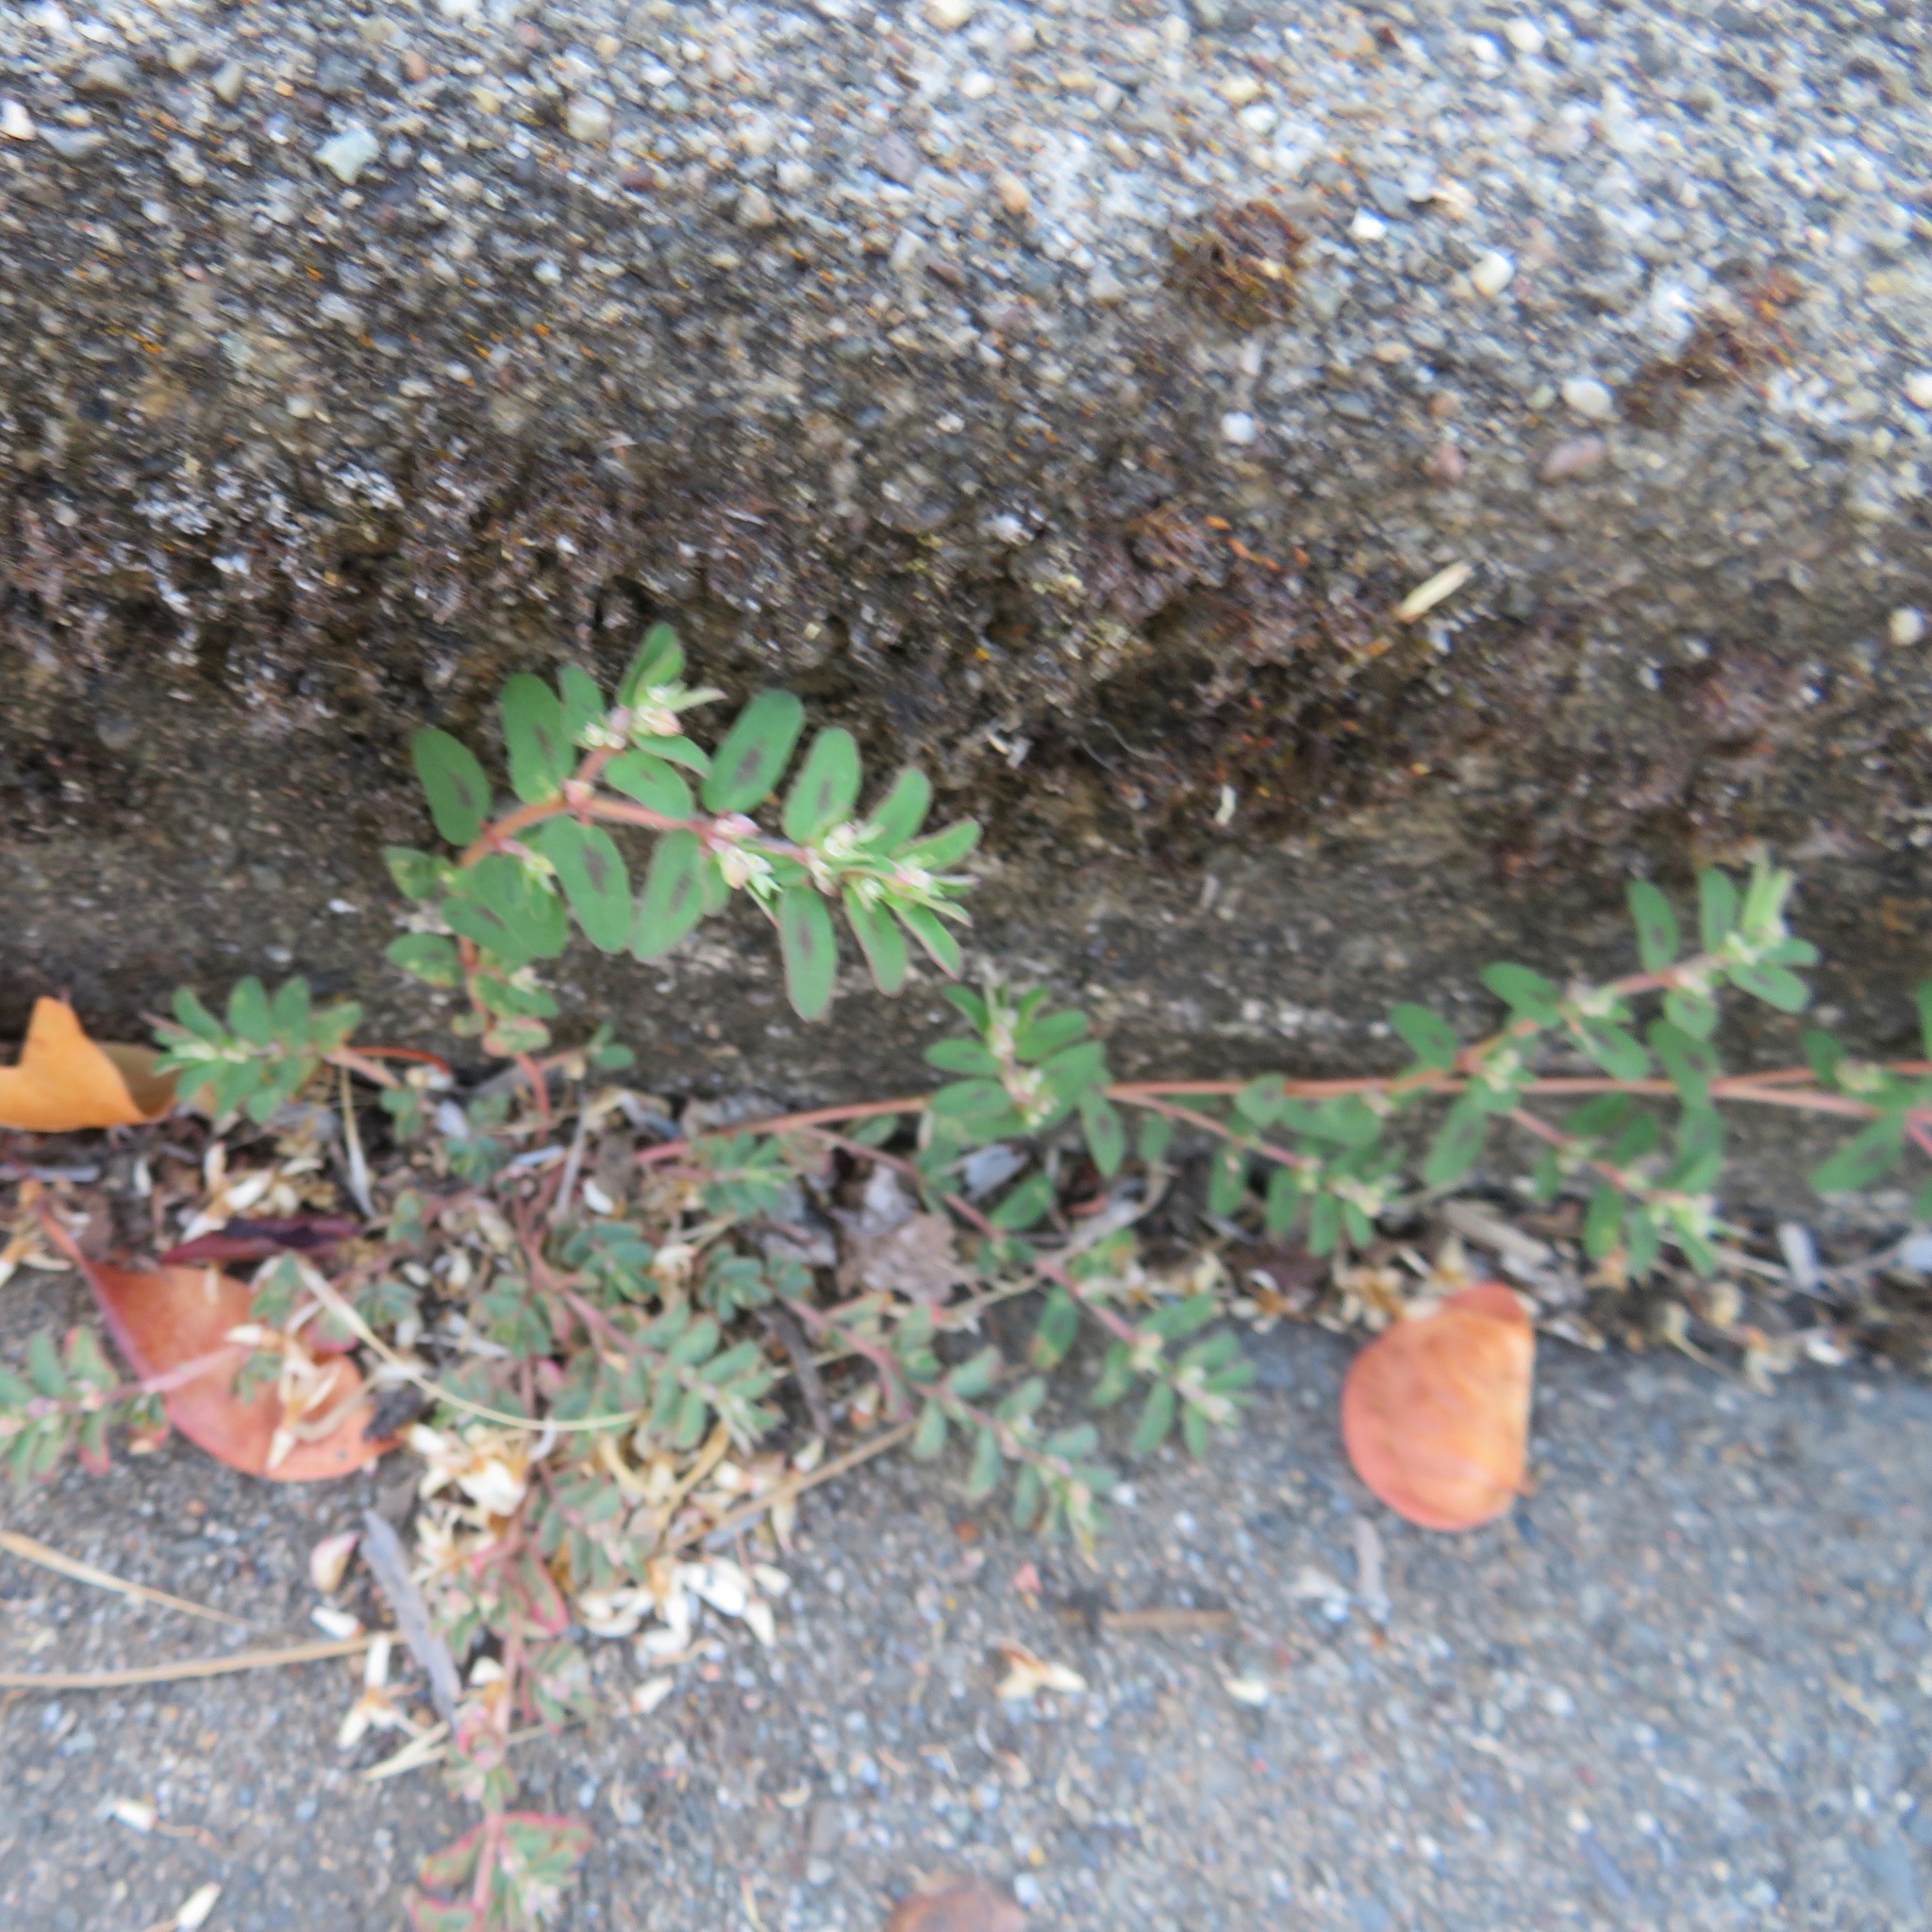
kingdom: Plantae
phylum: Tracheophyta
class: Magnoliopsida
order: Malpighiales
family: Euphorbiaceae
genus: Euphorbia
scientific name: Euphorbia maculata
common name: Spotted spurge
